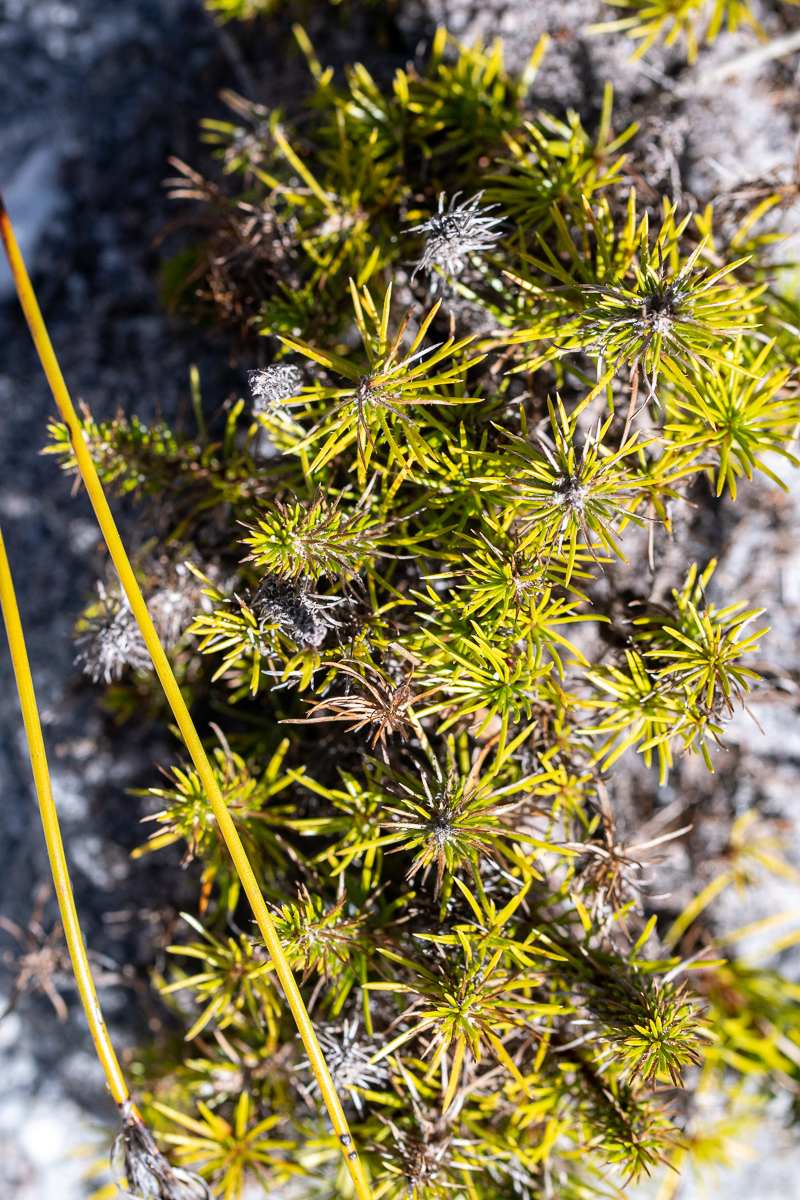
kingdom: Plantae
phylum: Tracheophyta
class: Magnoliopsida
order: Asterales
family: Campanulaceae
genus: Merciera
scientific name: Merciera leptoloba
